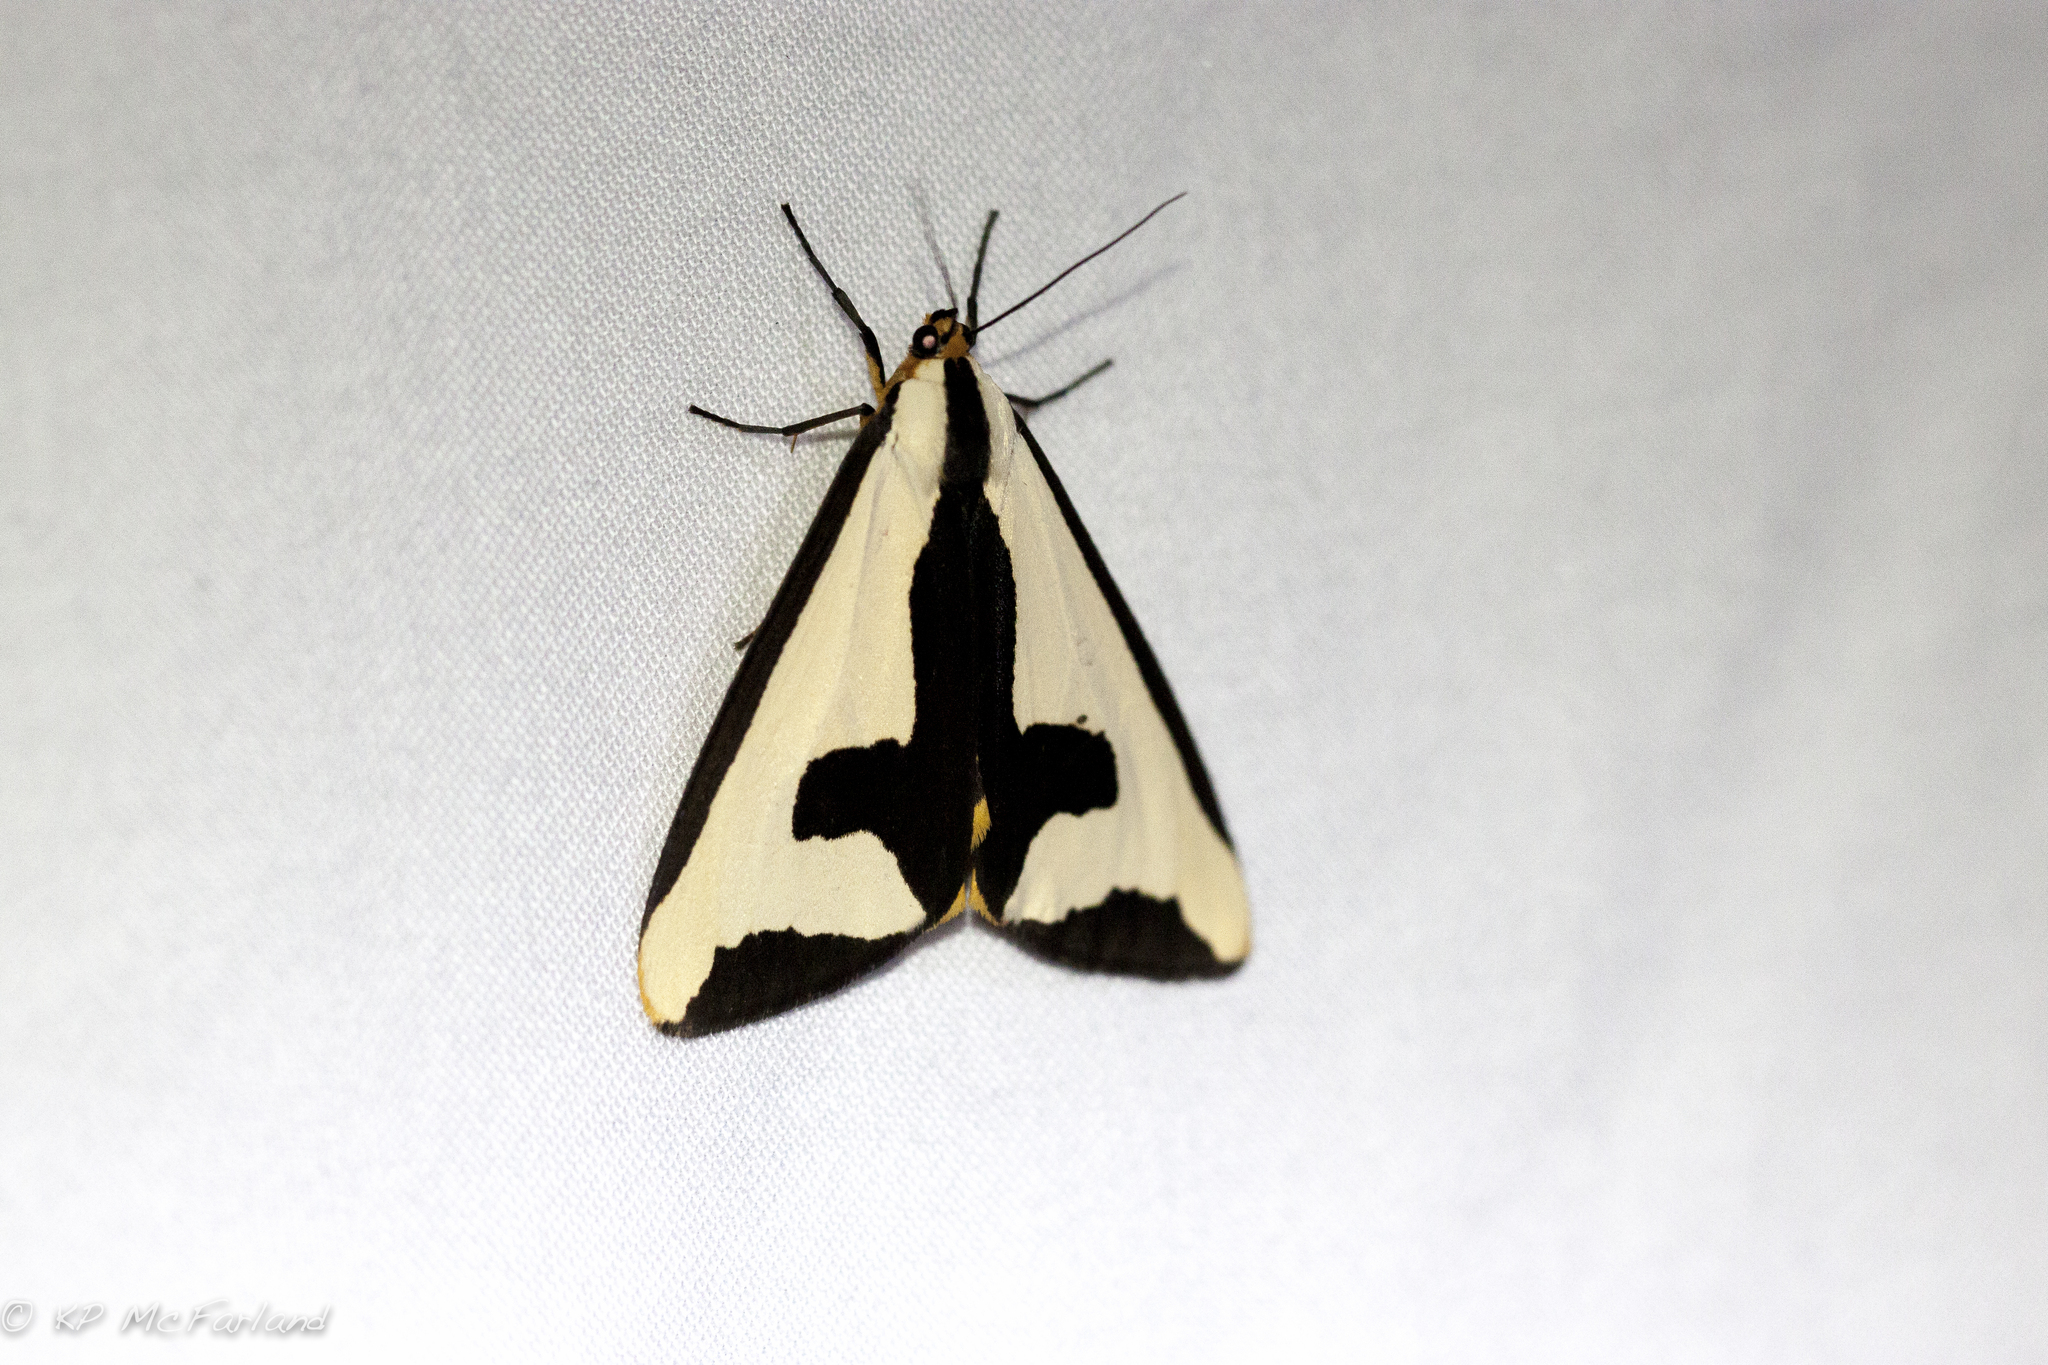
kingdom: Animalia
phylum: Arthropoda
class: Insecta
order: Lepidoptera
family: Erebidae
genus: Haploa
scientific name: Haploa clymene
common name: Clymene moth
